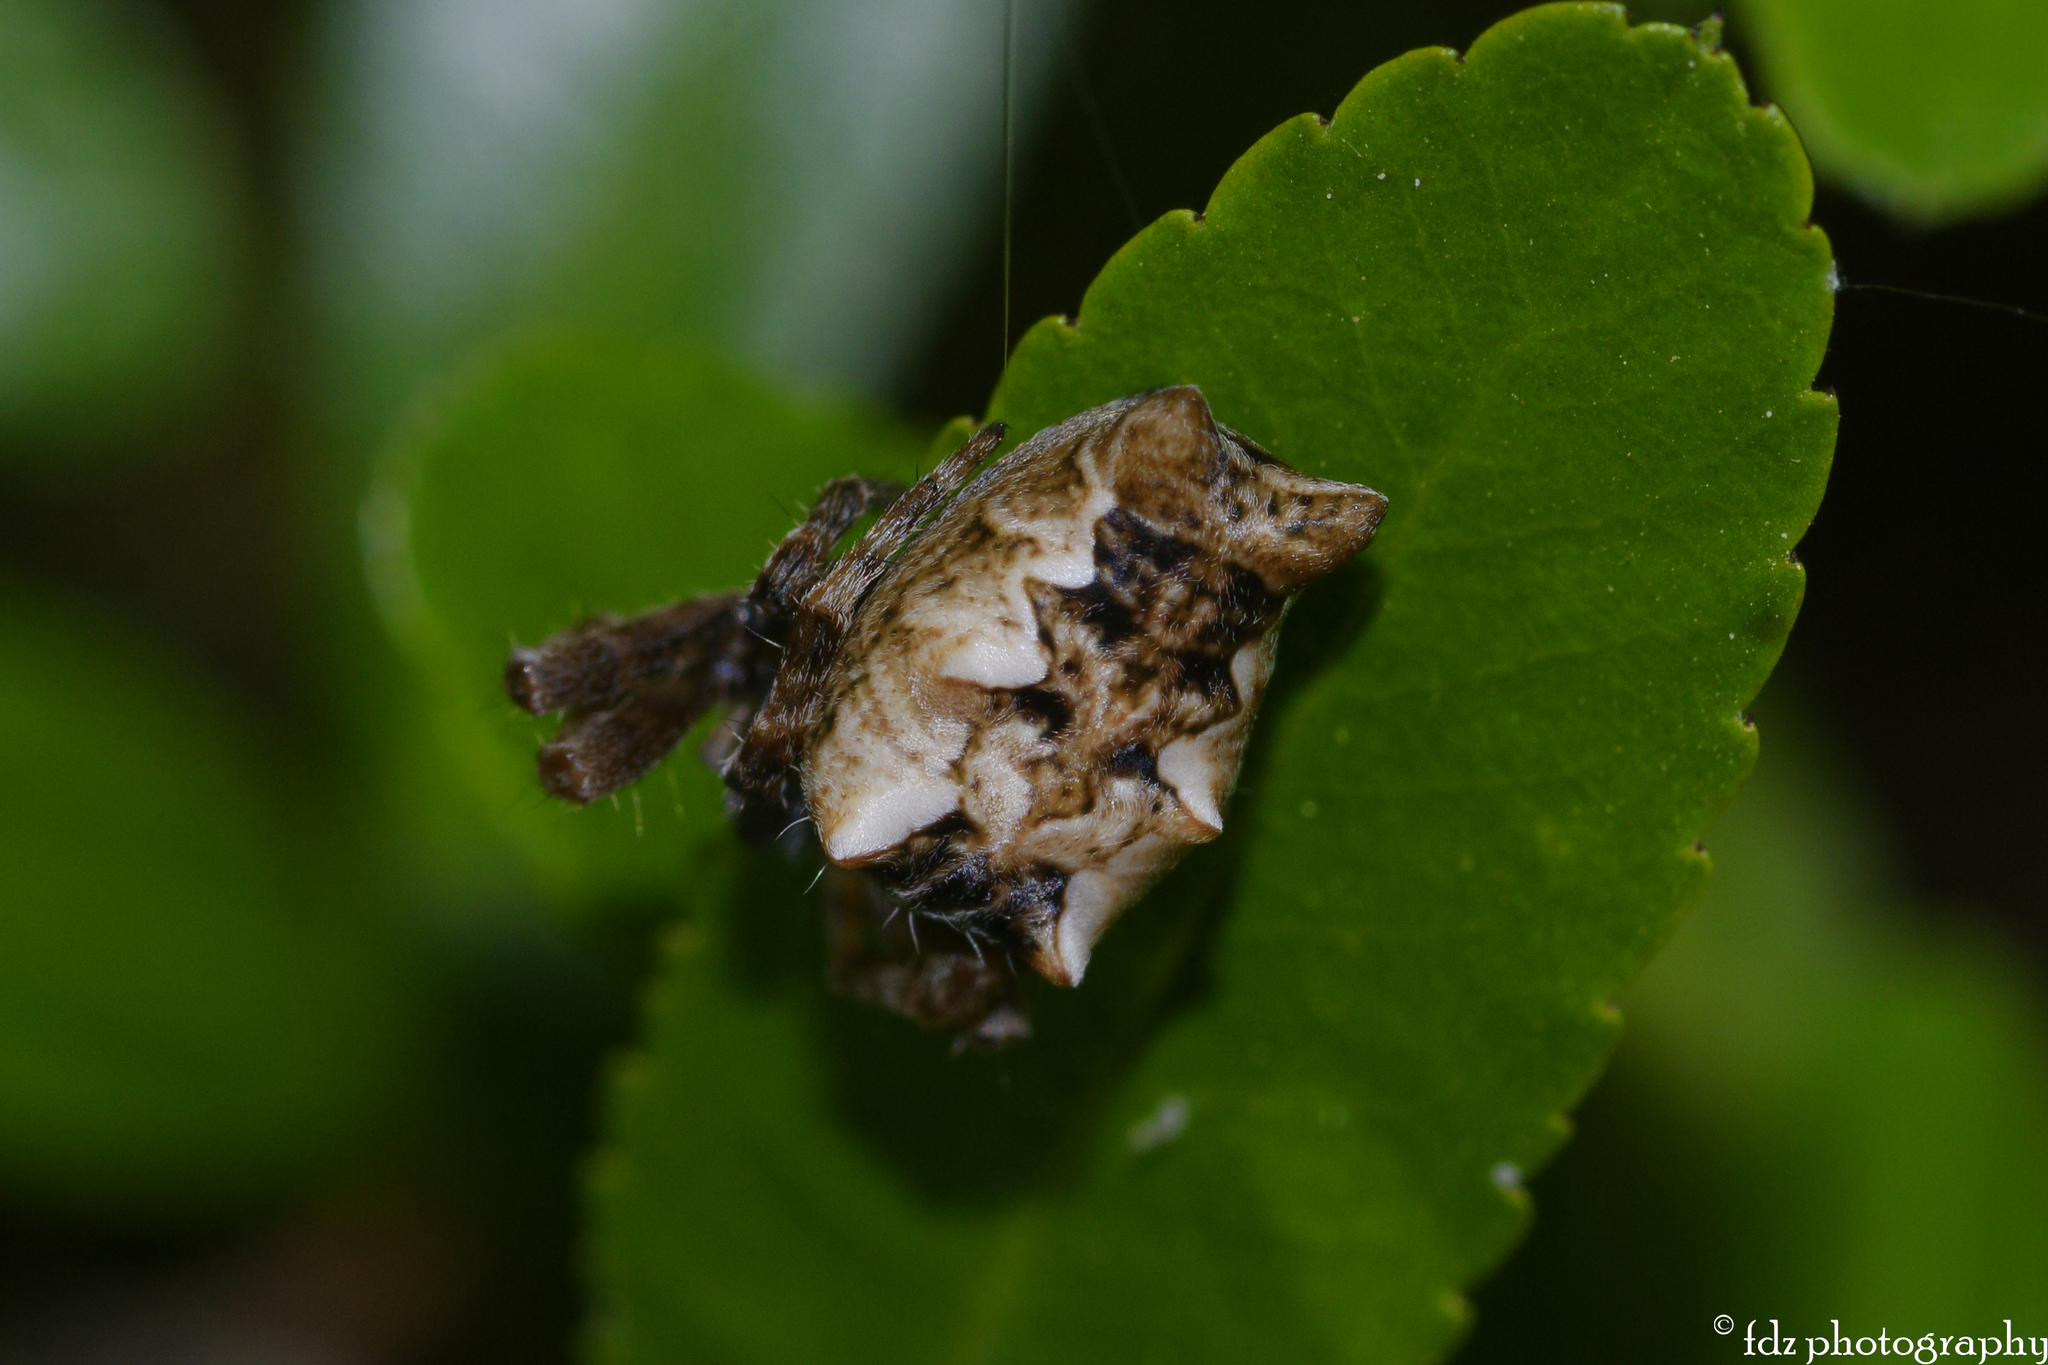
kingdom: Animalia
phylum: Arthropoda
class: Arachnida
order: Araneae
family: Araneidae
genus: Cyrtophora
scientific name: Cyrtophora citricola
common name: Orb weavers
